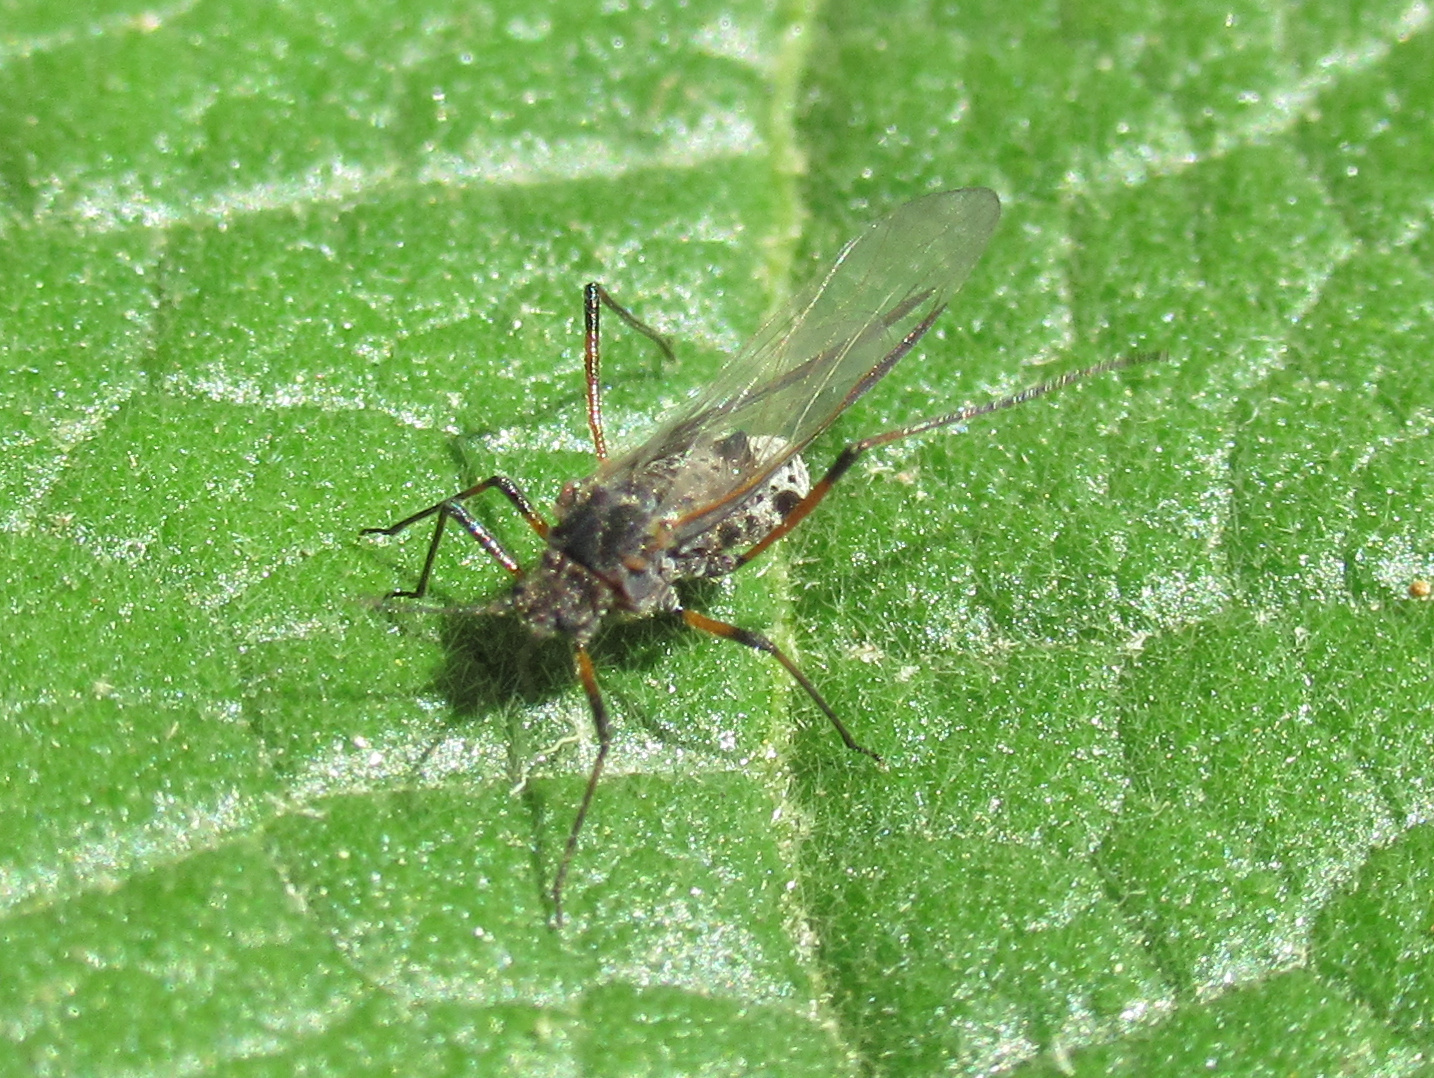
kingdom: Animalia
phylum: Arthropoda
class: Insecta
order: Hemiptera
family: Aphididae
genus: Tuberolachnus
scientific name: Tuberolachnus salignus
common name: Giant willow aphid
